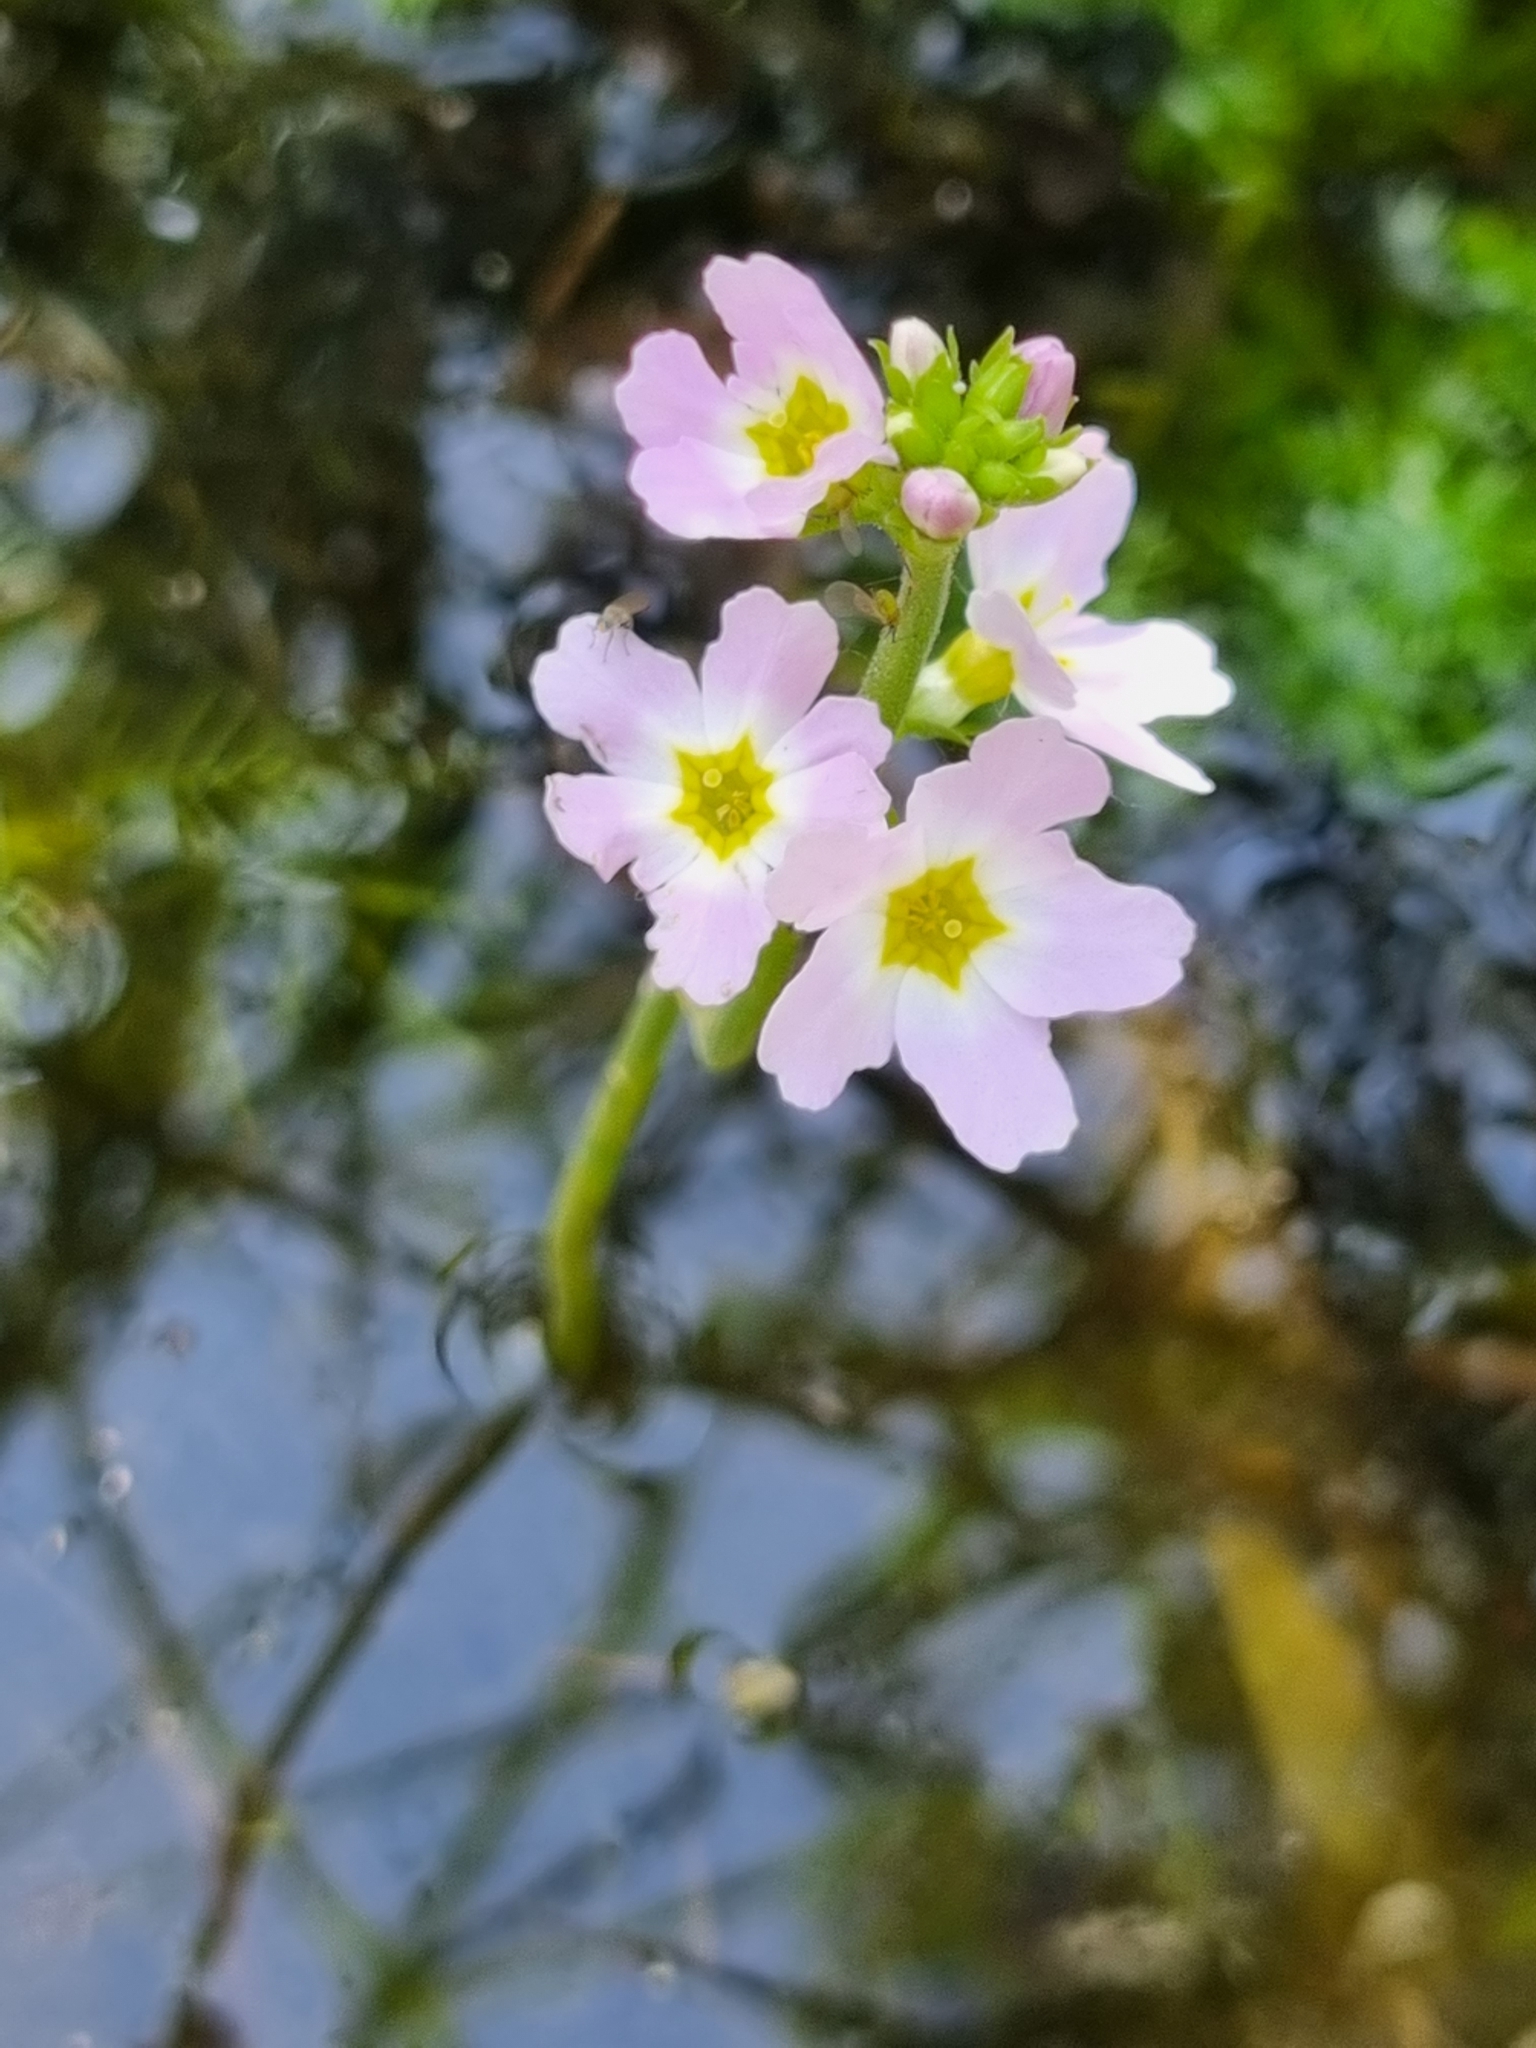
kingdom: Plantae
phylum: Tracheophyta
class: Magnoliopsida
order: Ericales
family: Primulaceae
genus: Hottonia
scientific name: Hottonia palustris
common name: Water-violet
